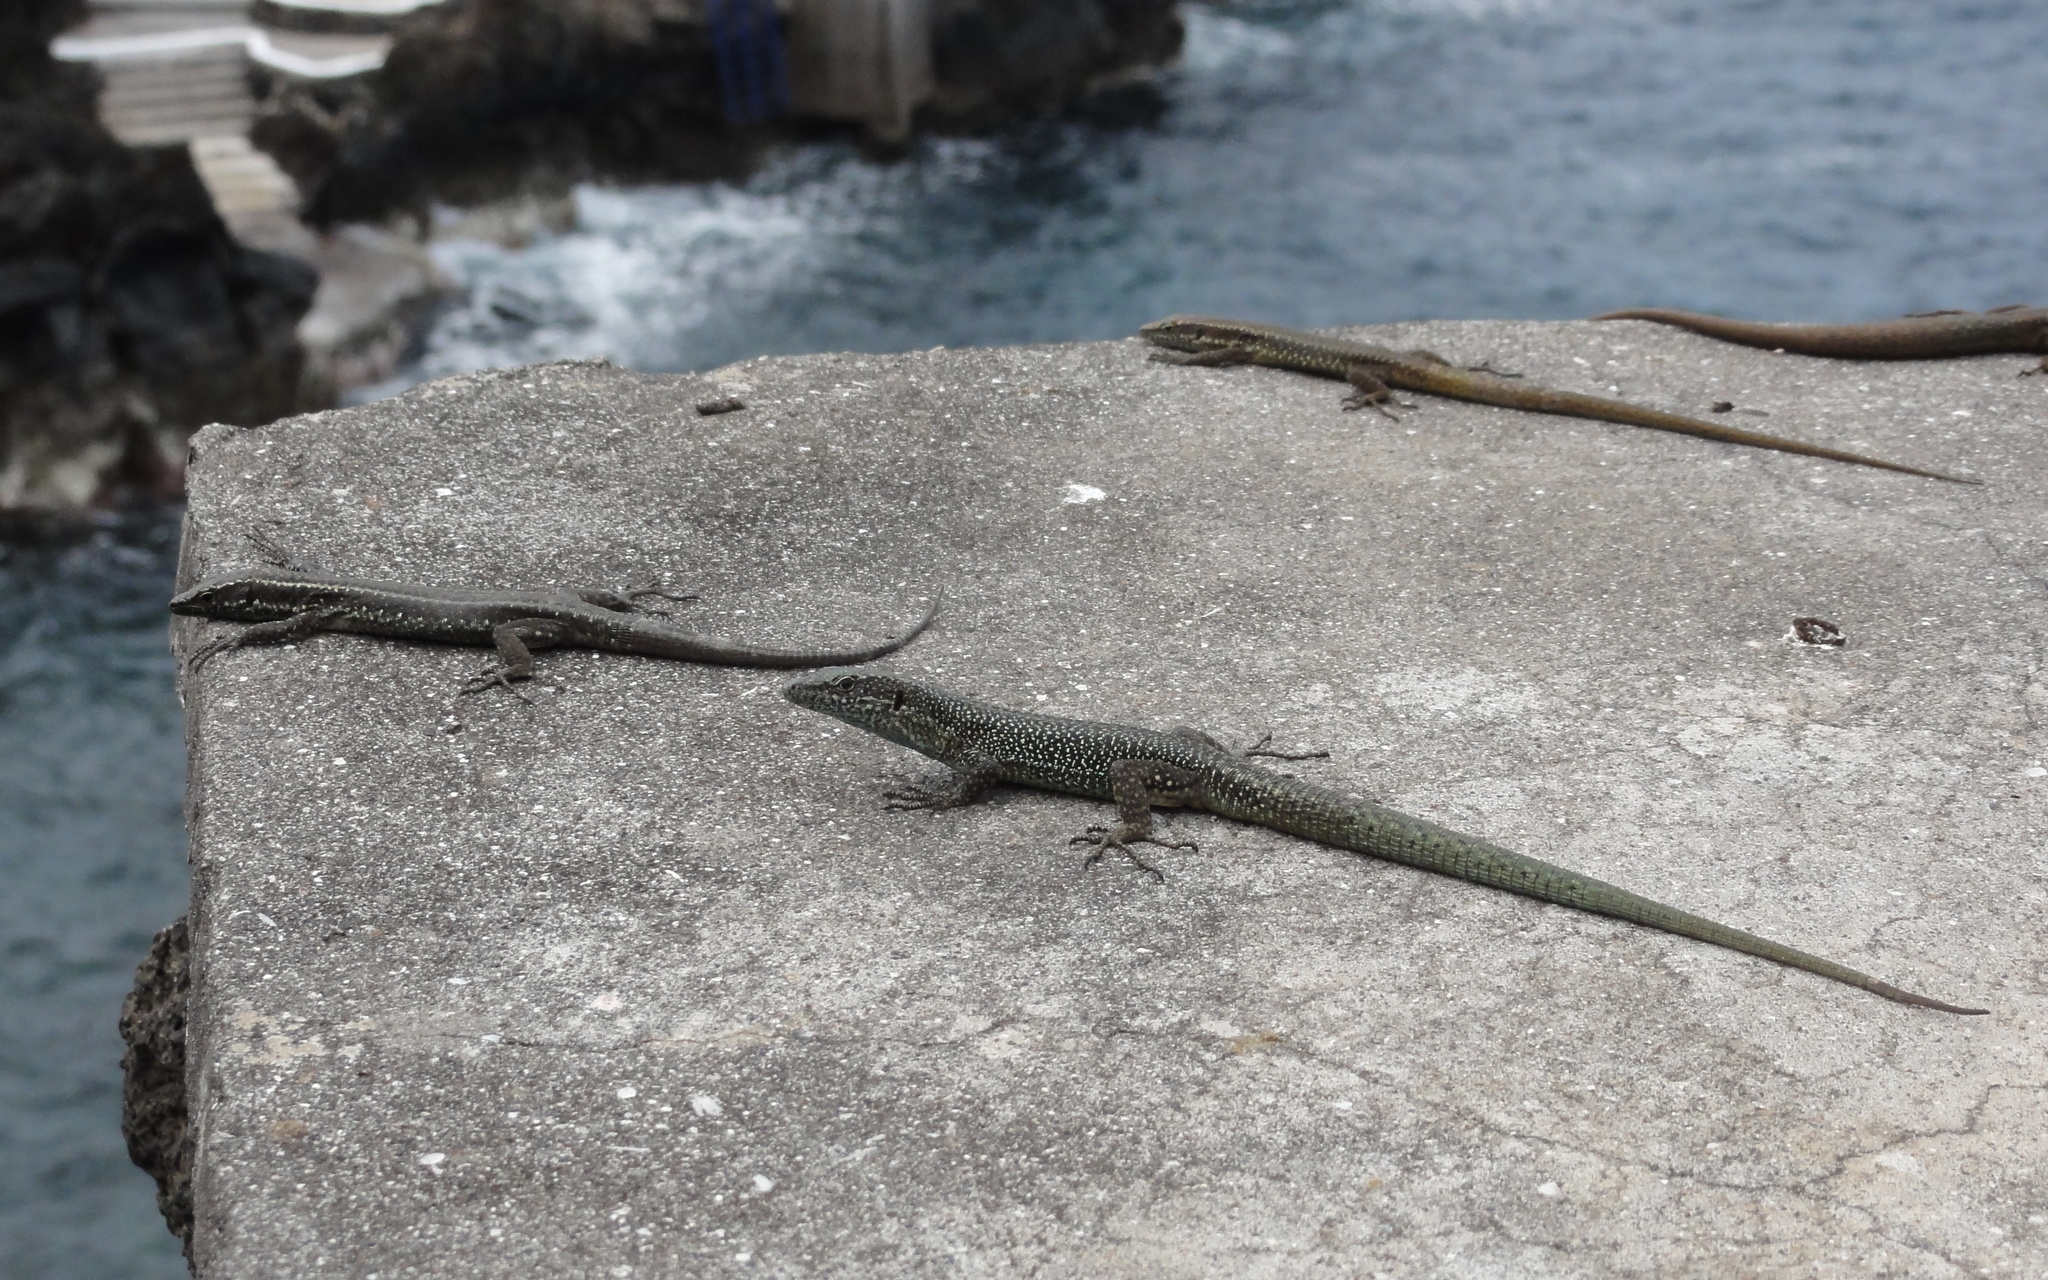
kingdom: Animalia
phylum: Chordata
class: Squamata
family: Lacertidae
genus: Teira
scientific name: Teira dugesii
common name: Madeira lizard
